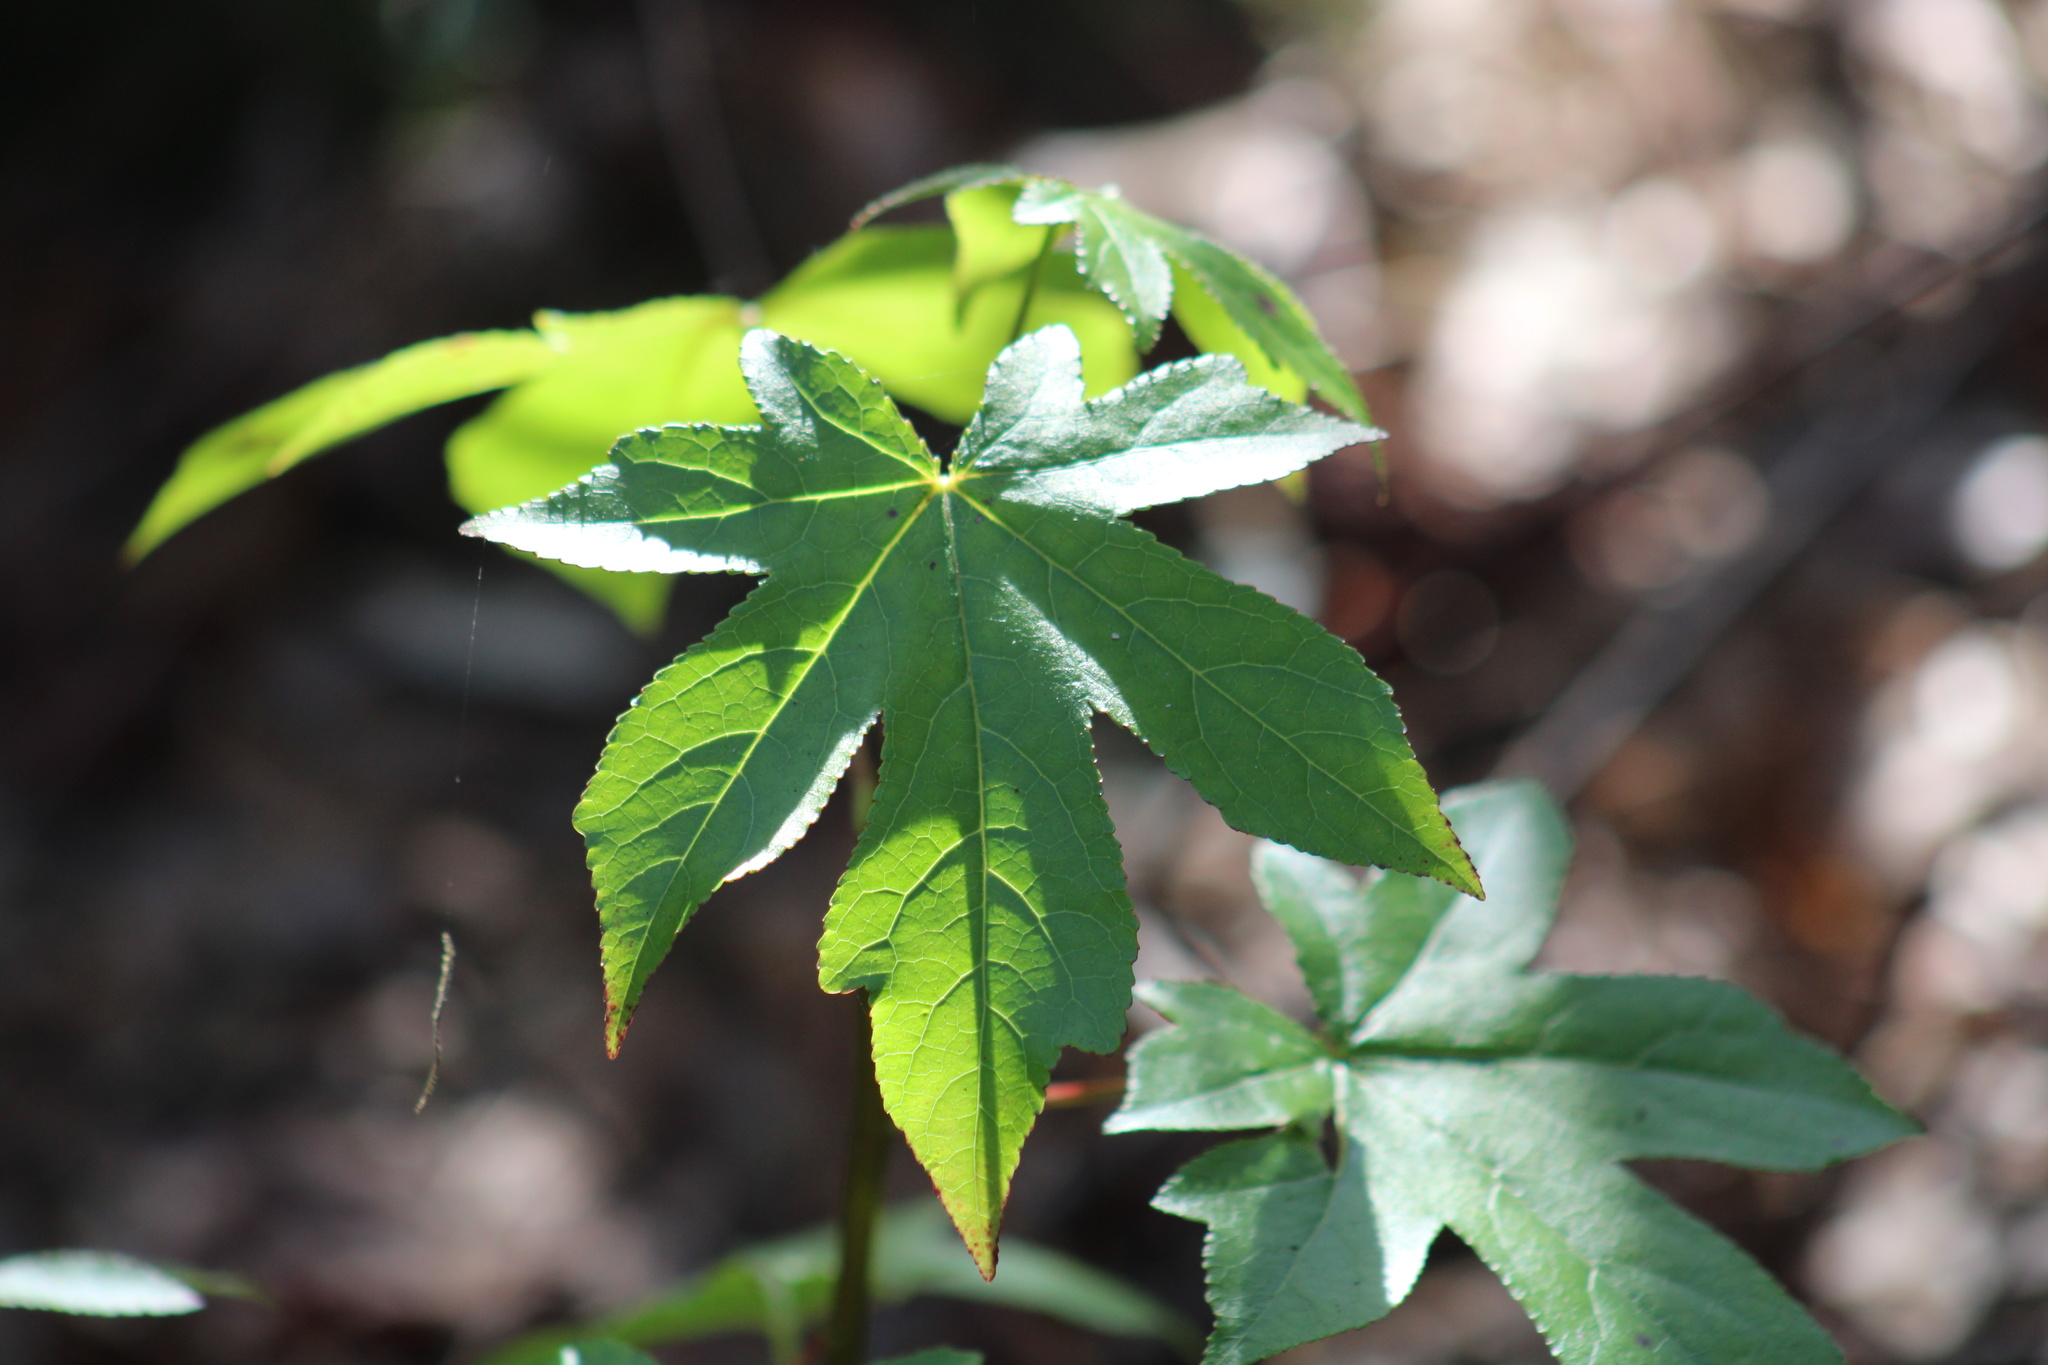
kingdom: Plantae
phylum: Tracheophyta
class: Magnoliopsida
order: Saxifragales
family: Altingiaceae
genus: Liquidambar
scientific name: Liquidambar styraciflua
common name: Sweet gum
